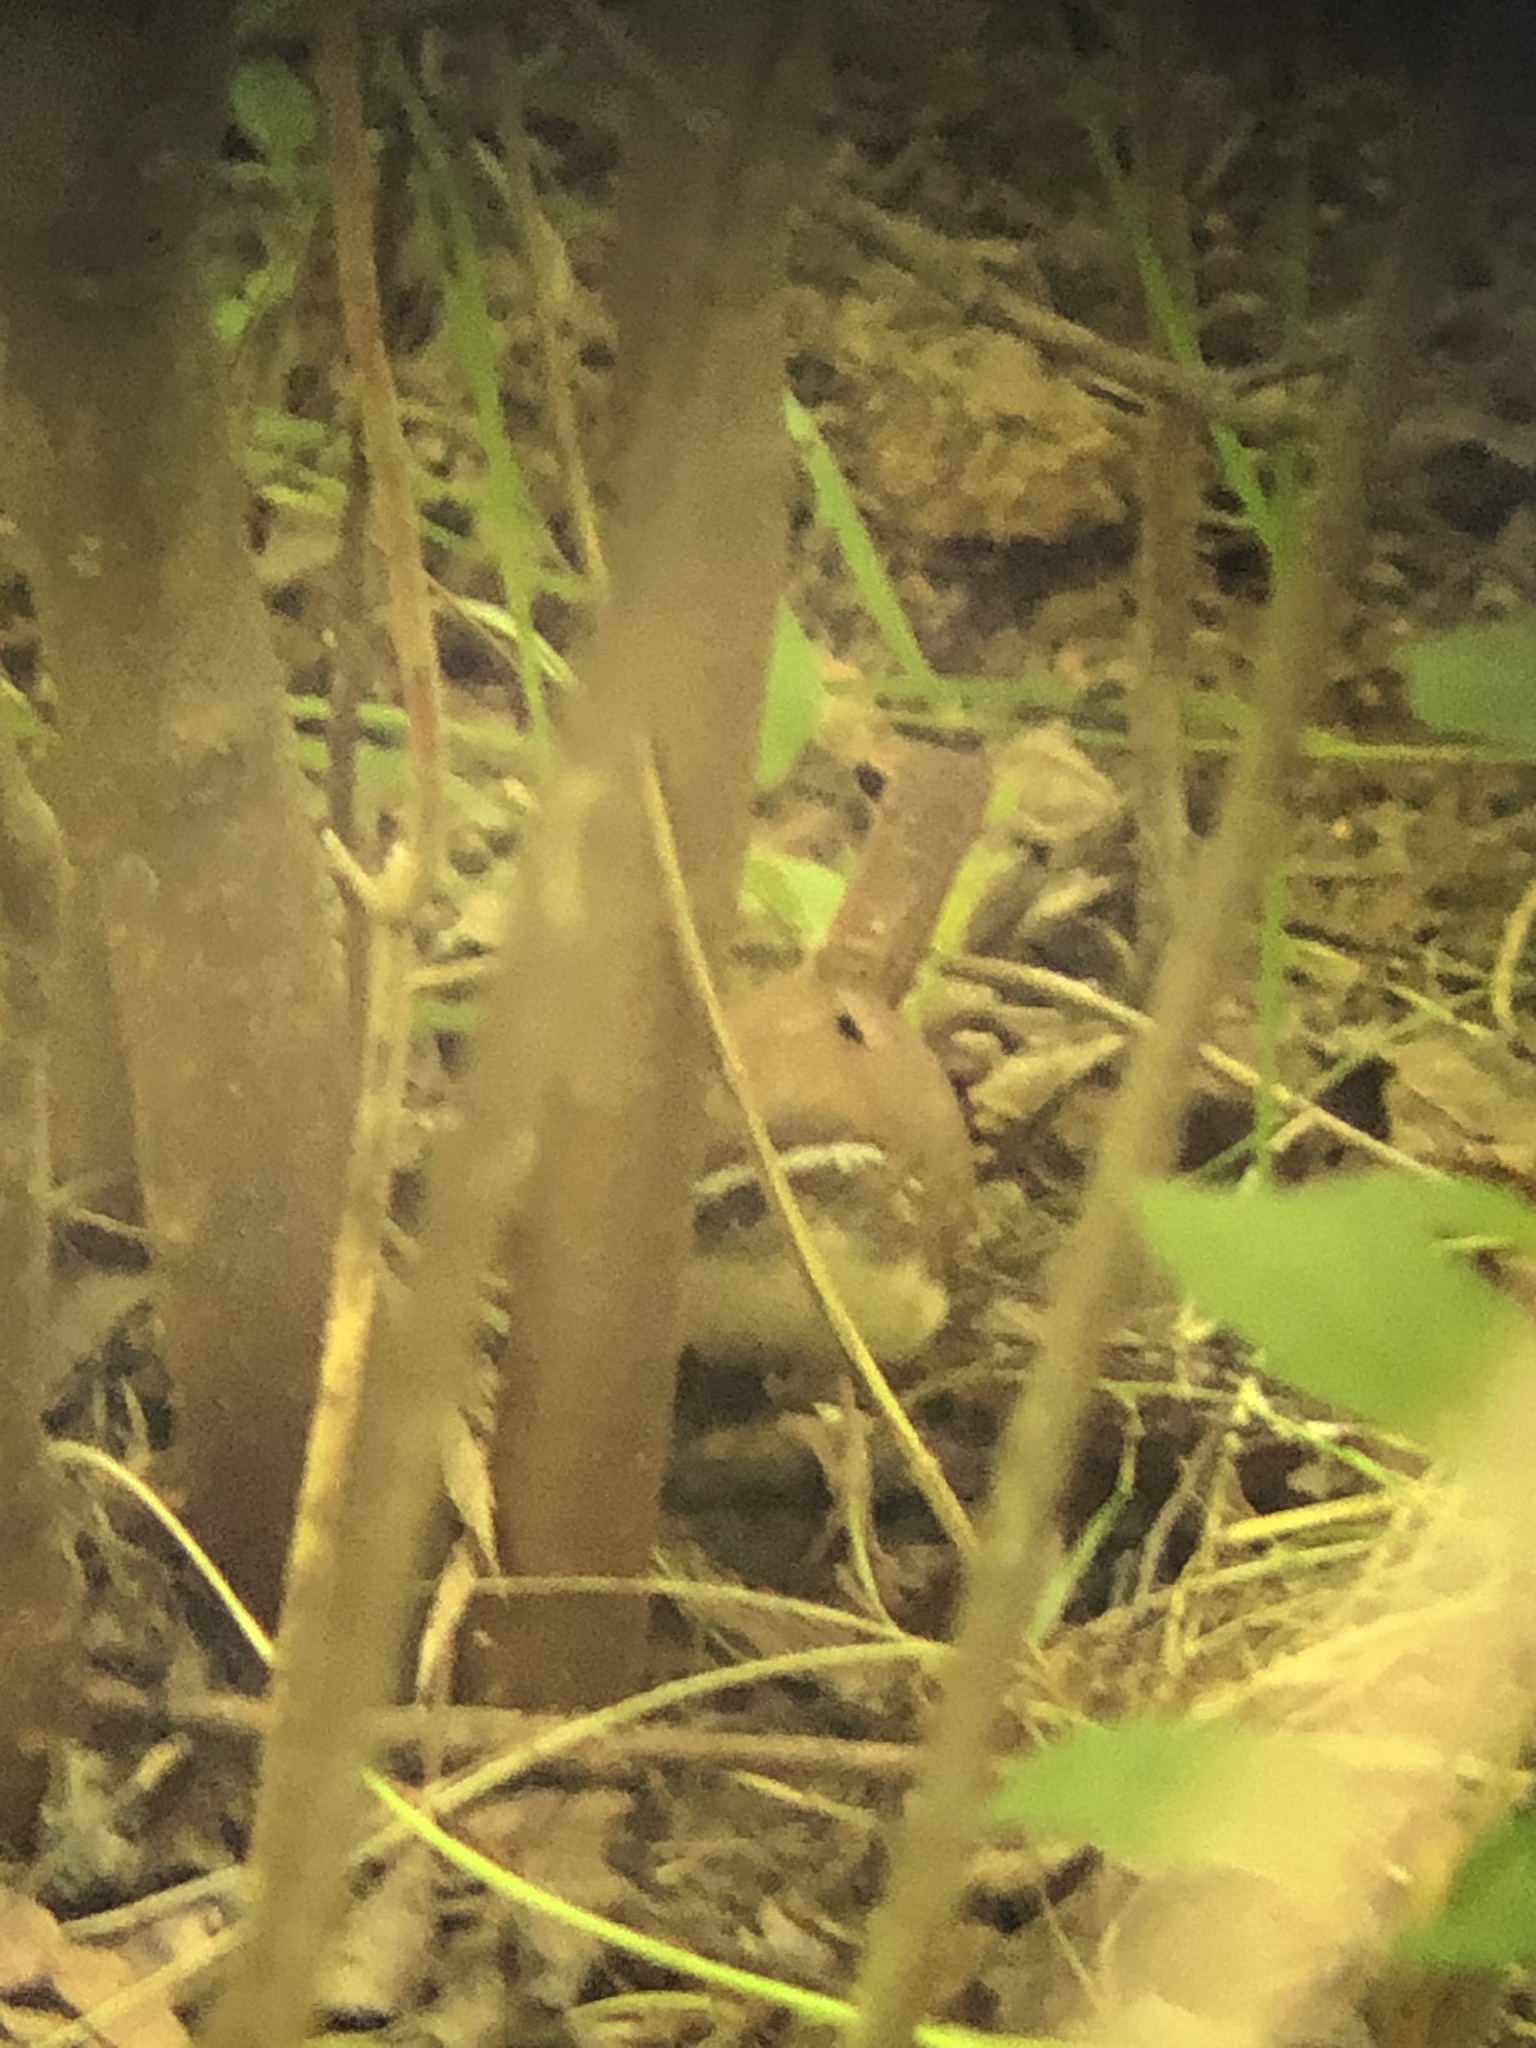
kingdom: Animalia
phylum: Chordata
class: Aves
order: Passeriformes
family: Troglodytidae
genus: Thryothorus
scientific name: Thryothorus ludovicianus
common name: Carolina wren
